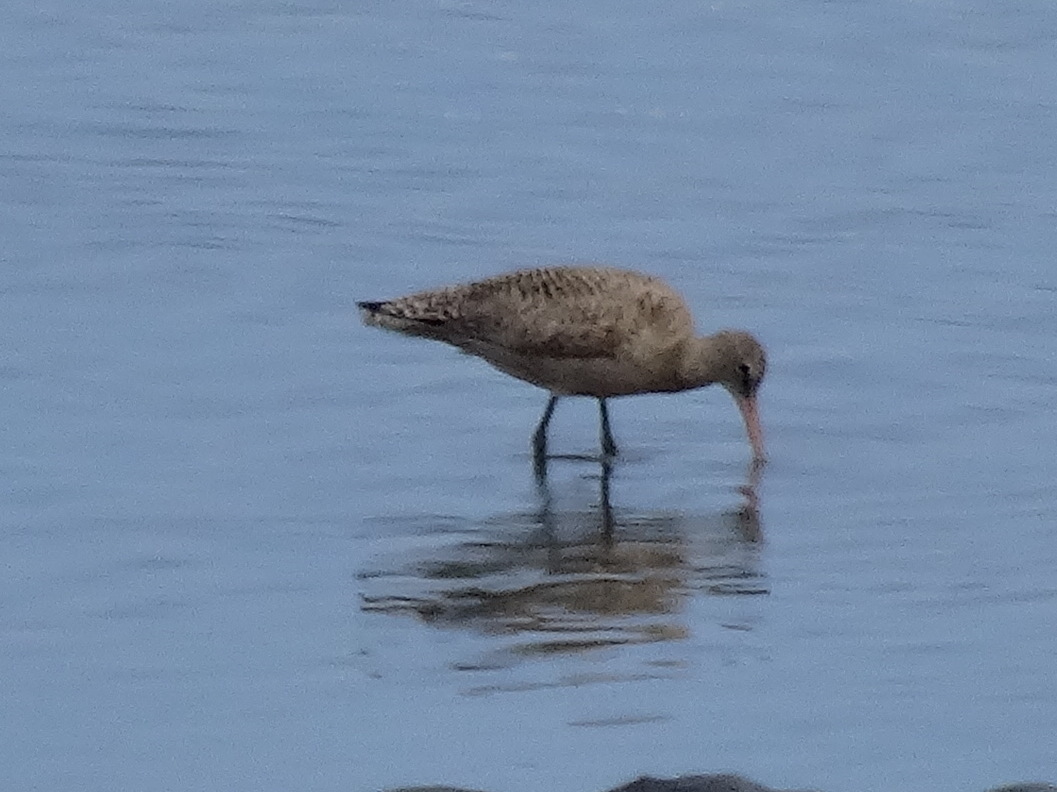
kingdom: Animalia
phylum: Chordata
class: Aves
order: Charadriiformes
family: Scolopacidae
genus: Limosa
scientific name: Limosa fedoa
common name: Marbled godwit
